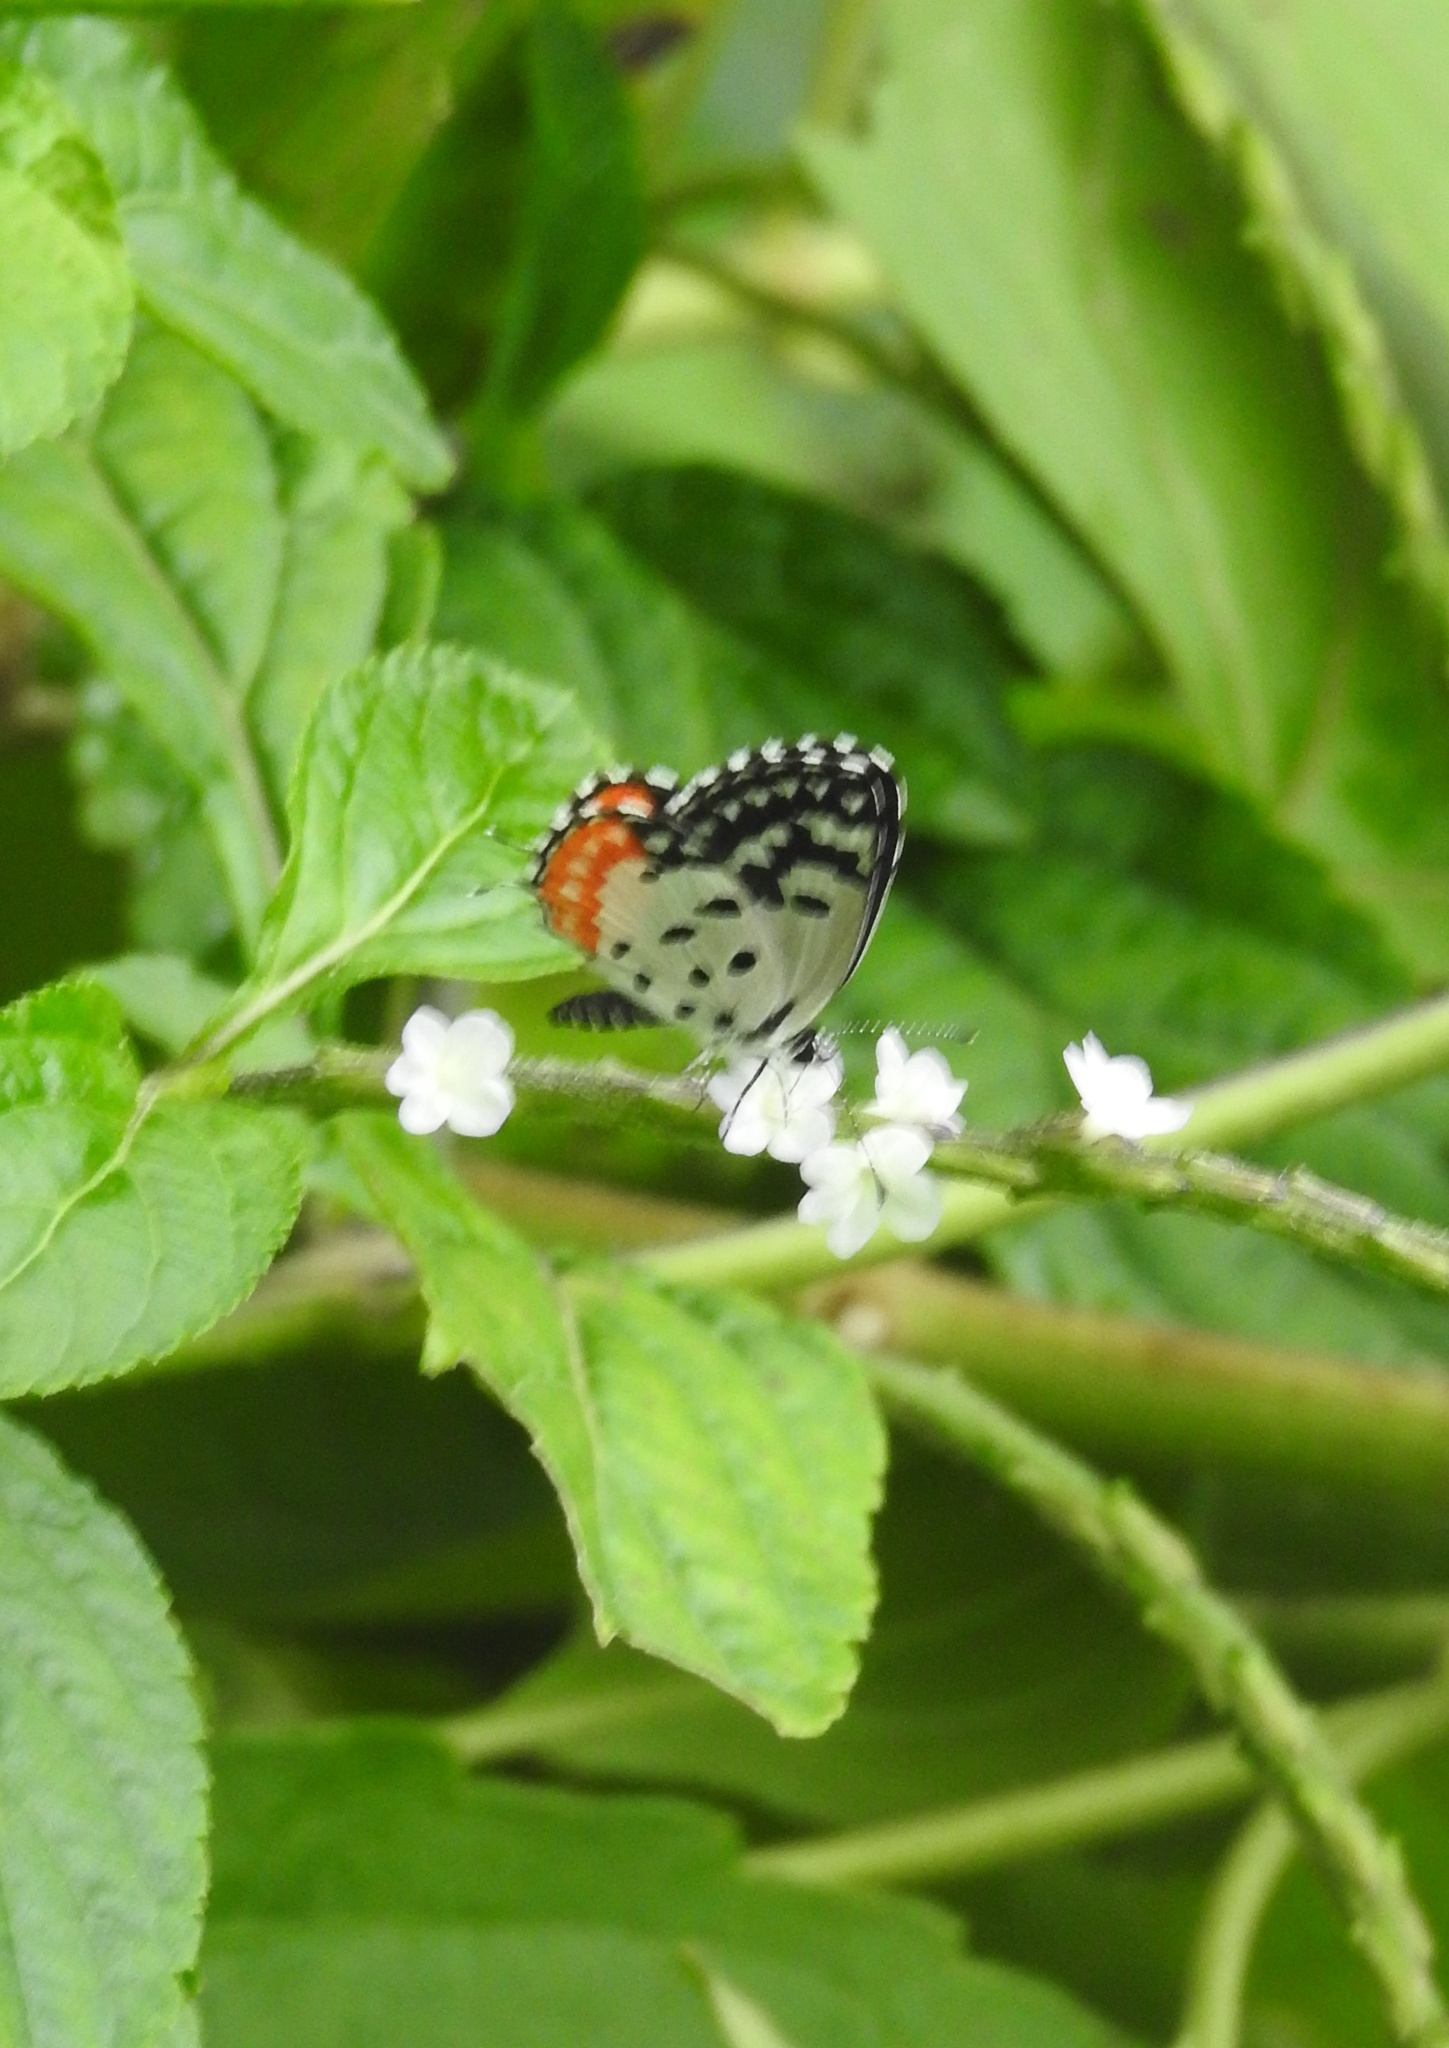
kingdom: Animalia
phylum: Arthropoda
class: Insecta
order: Lepidoptera
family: Lycaenidae
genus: Talicada
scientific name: Talicada nyseus
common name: Red pierrot
